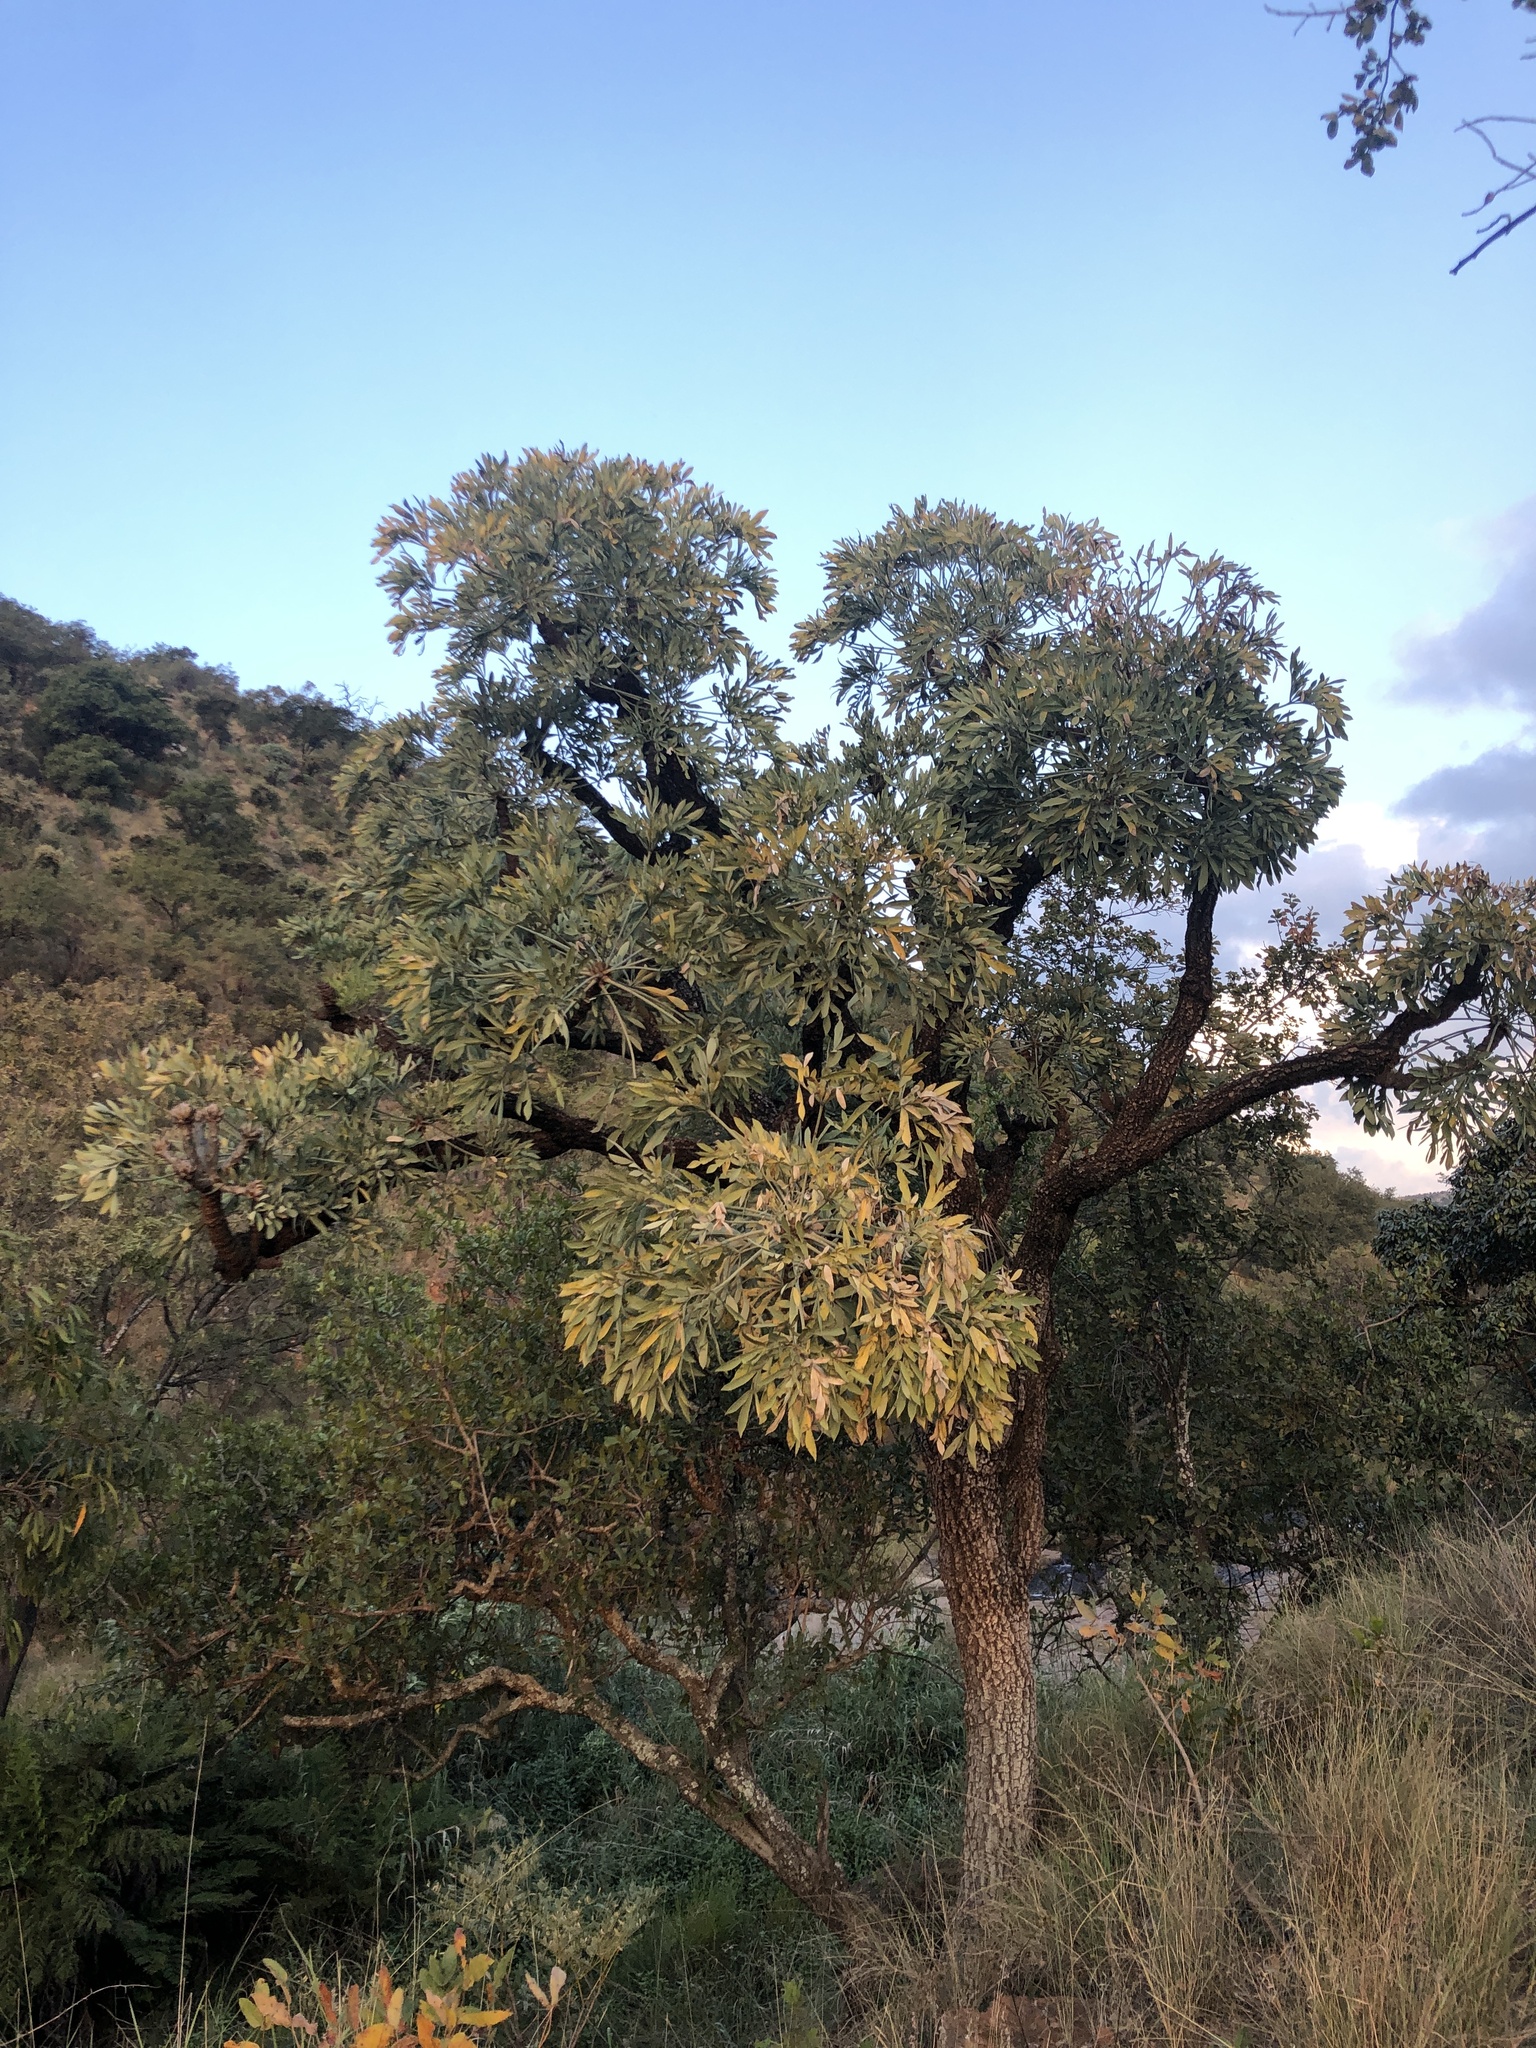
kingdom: Plantae
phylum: Tracheophyta
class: Magnoliopsida
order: Apiales
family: Araliaceae
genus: Cussonia
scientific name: Cussonia transvaalensis
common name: Grey cabbage-tree
